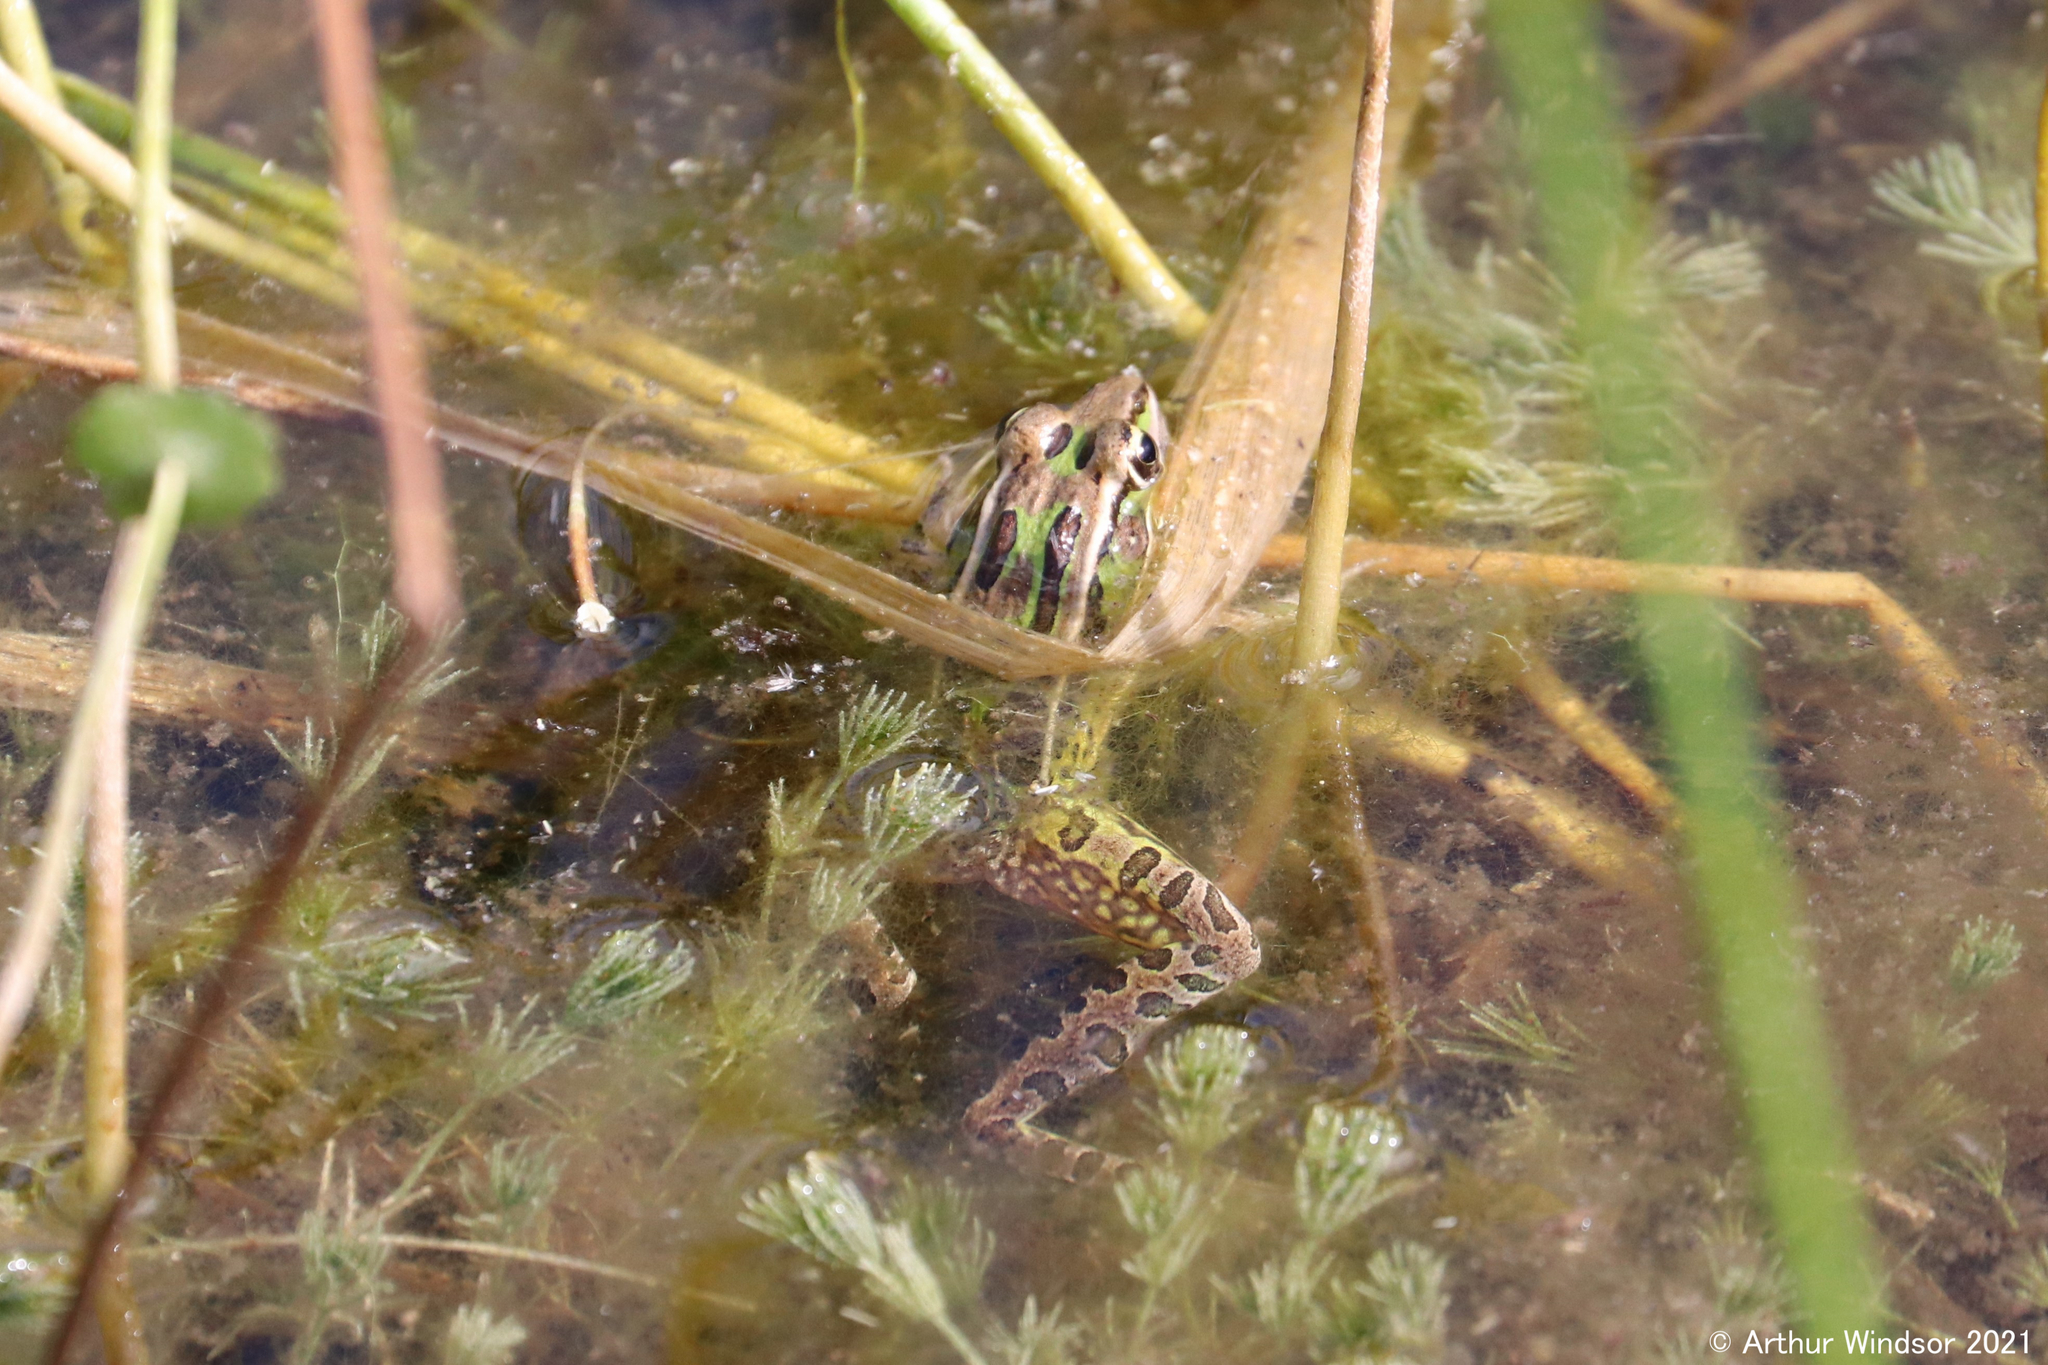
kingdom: Animalia
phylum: Chordata
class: Amphibia
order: Anura
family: Ranidae
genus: Lithobates
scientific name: Lithobates sphenocephalus
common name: Southern leopard frog
